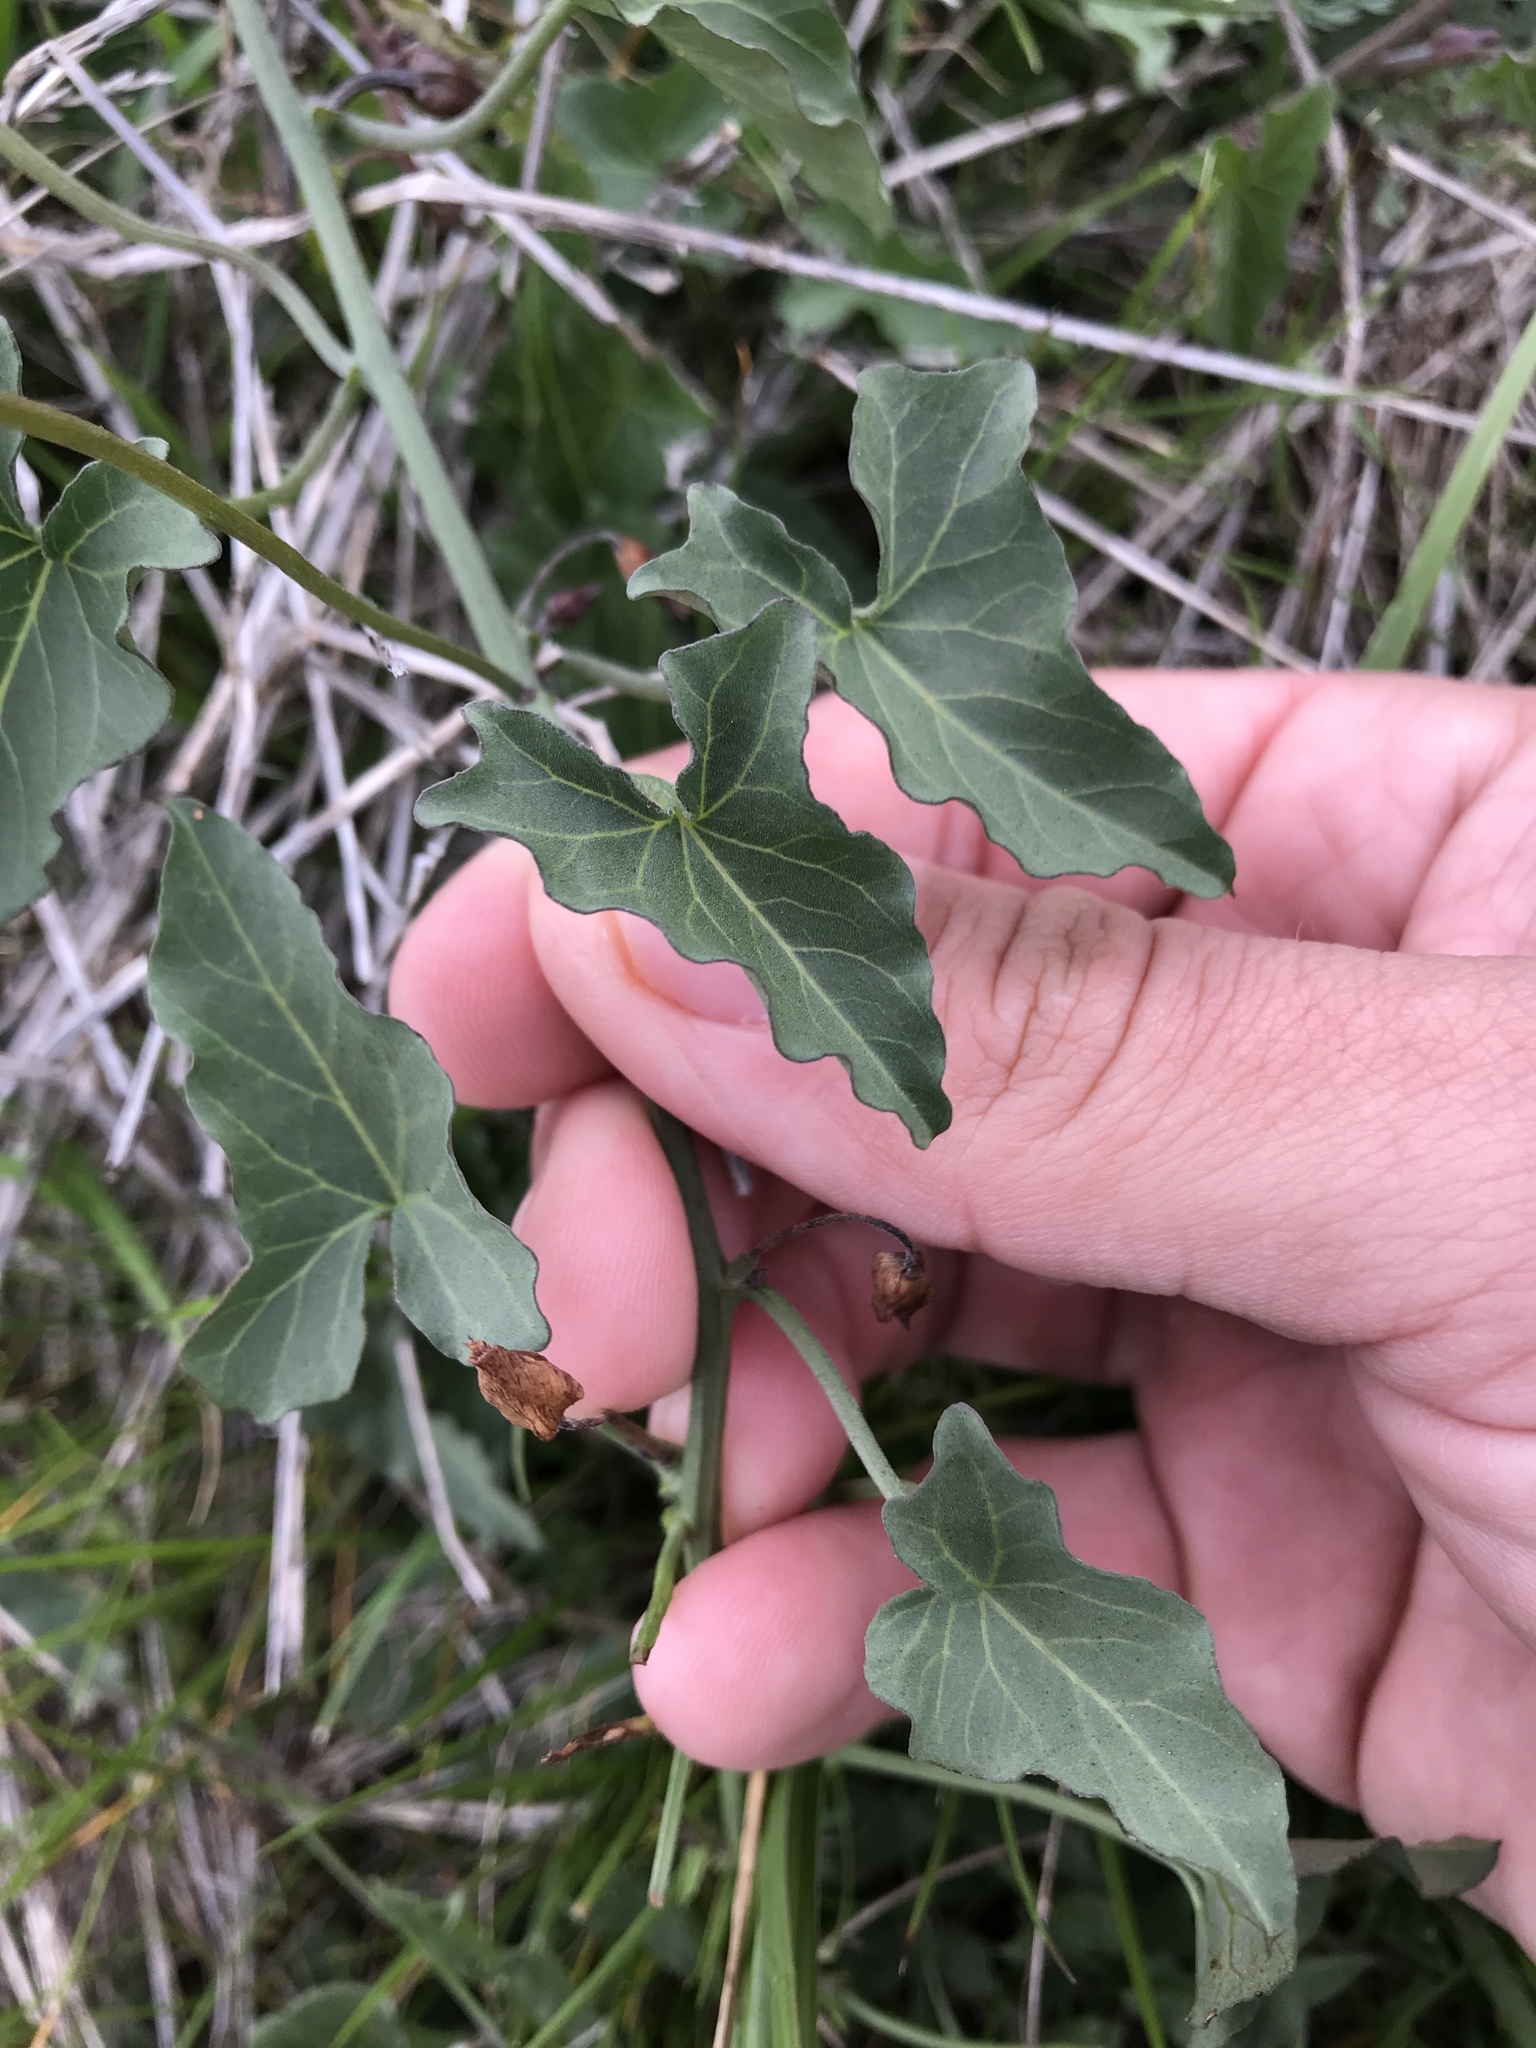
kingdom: Plantae
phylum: Tracheophyta
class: Magnoliopsida
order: Solanales
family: Convolvulaceae
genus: Calystegia
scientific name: Calystegia macrostegia
